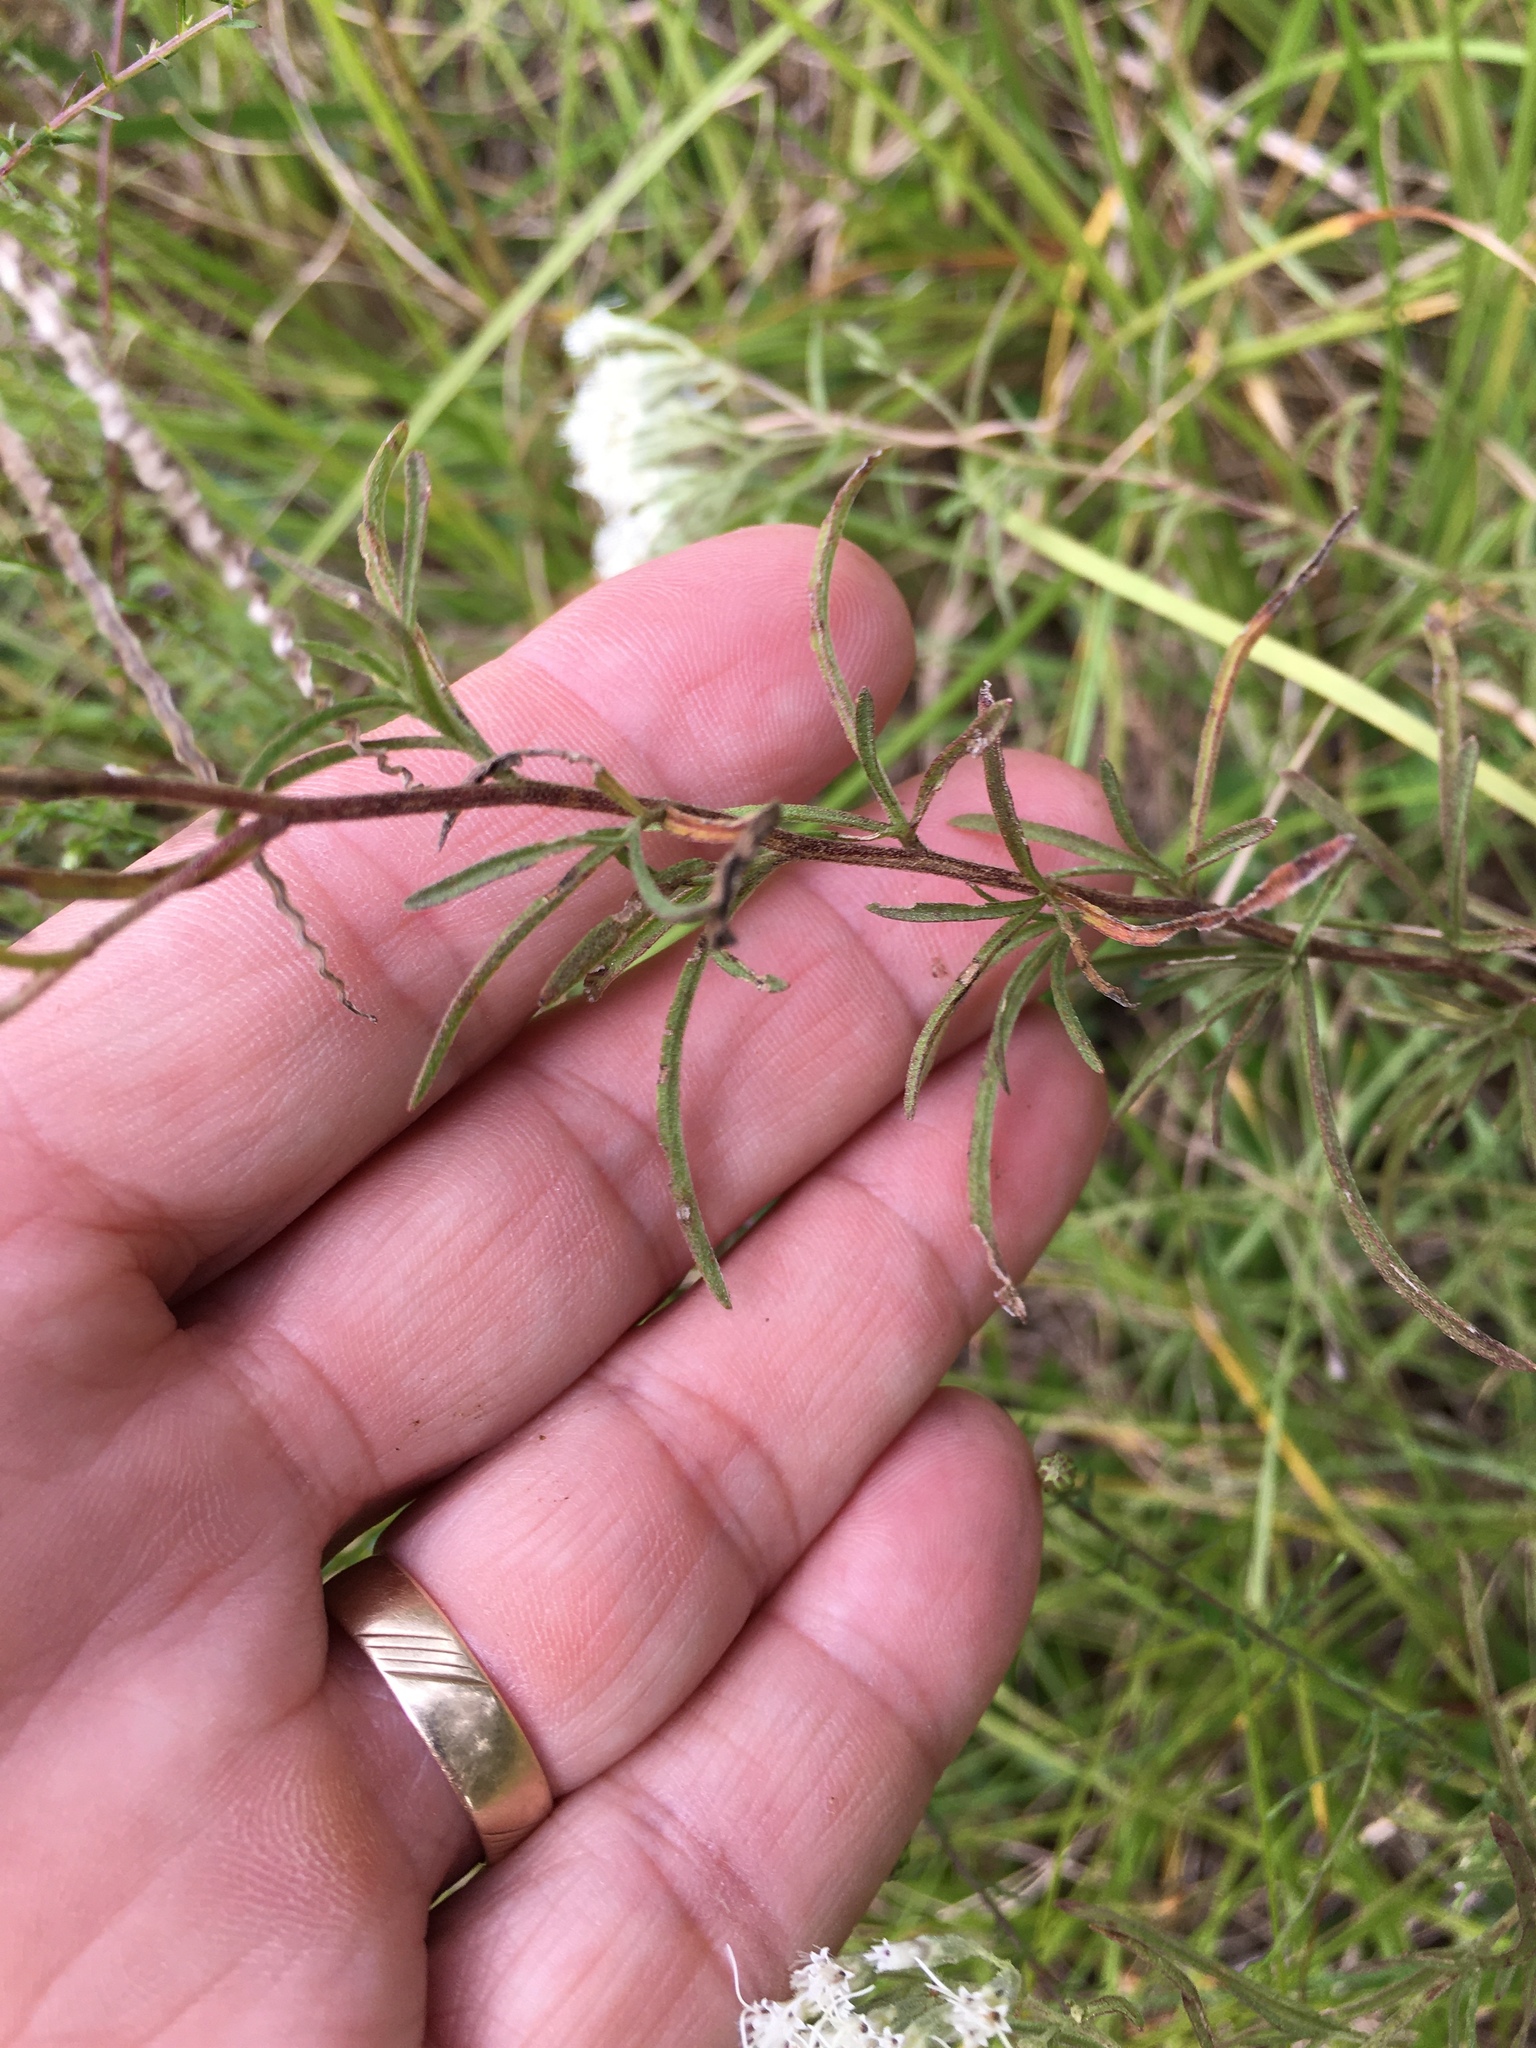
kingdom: Plantae
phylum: Tracheophyta
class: Magnoliopsida
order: Asterales
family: Asteraceae
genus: Eupatorium
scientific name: Eupatorium hyssopifolium
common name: Hyssop-leaf thoroughwort
